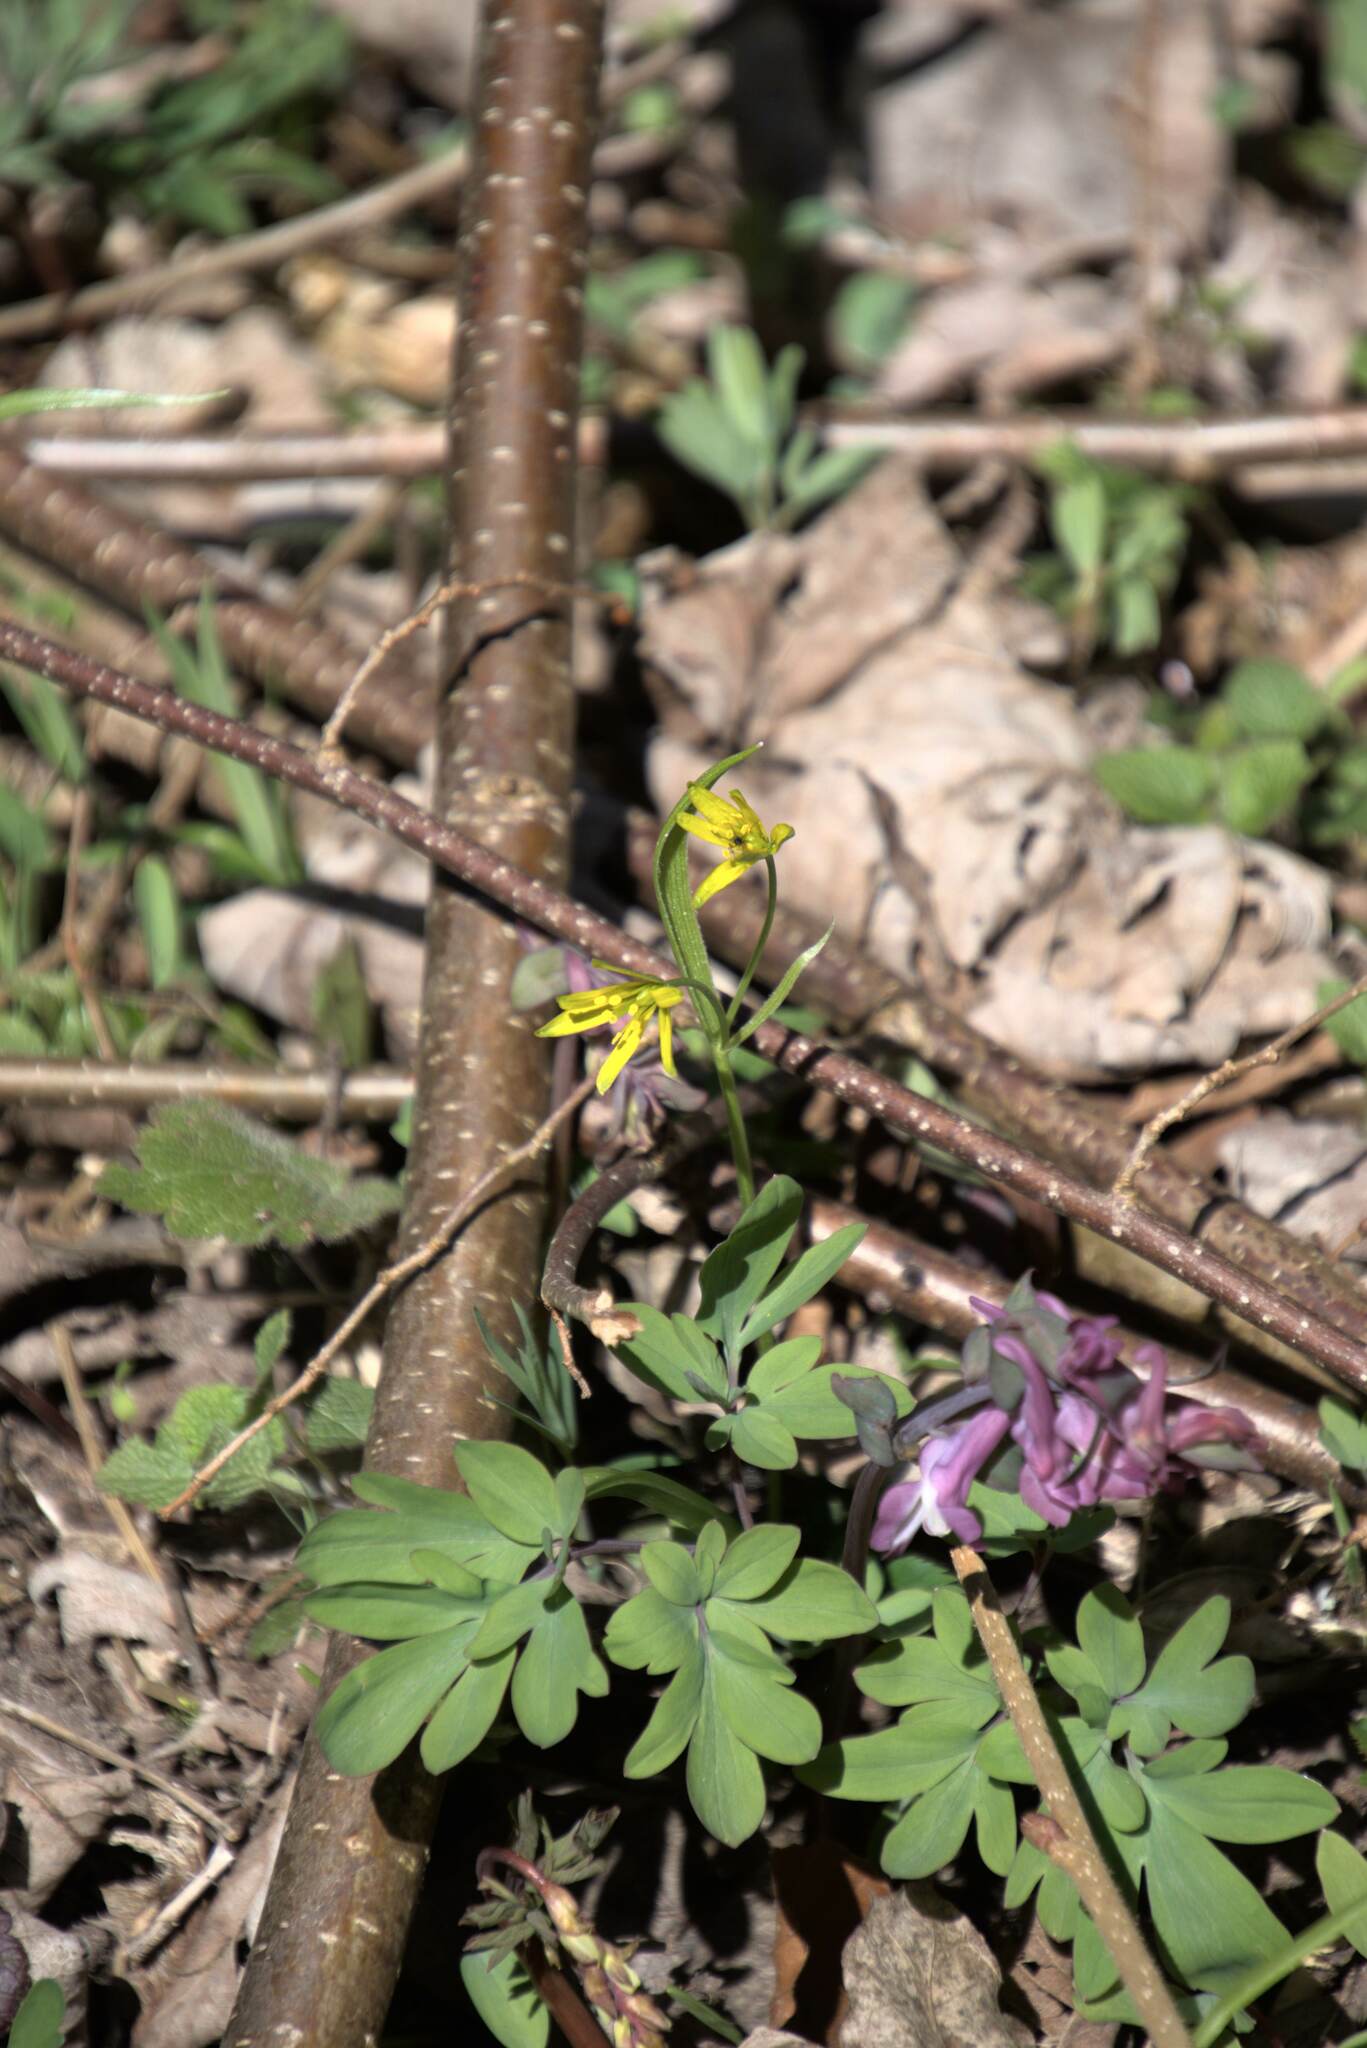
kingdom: Plantae
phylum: Tracheophyta
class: Liliopsida
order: Liliales
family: Liliaceae
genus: Gagea
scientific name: Gagea lutea
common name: Yellow star-of-bethlehem
